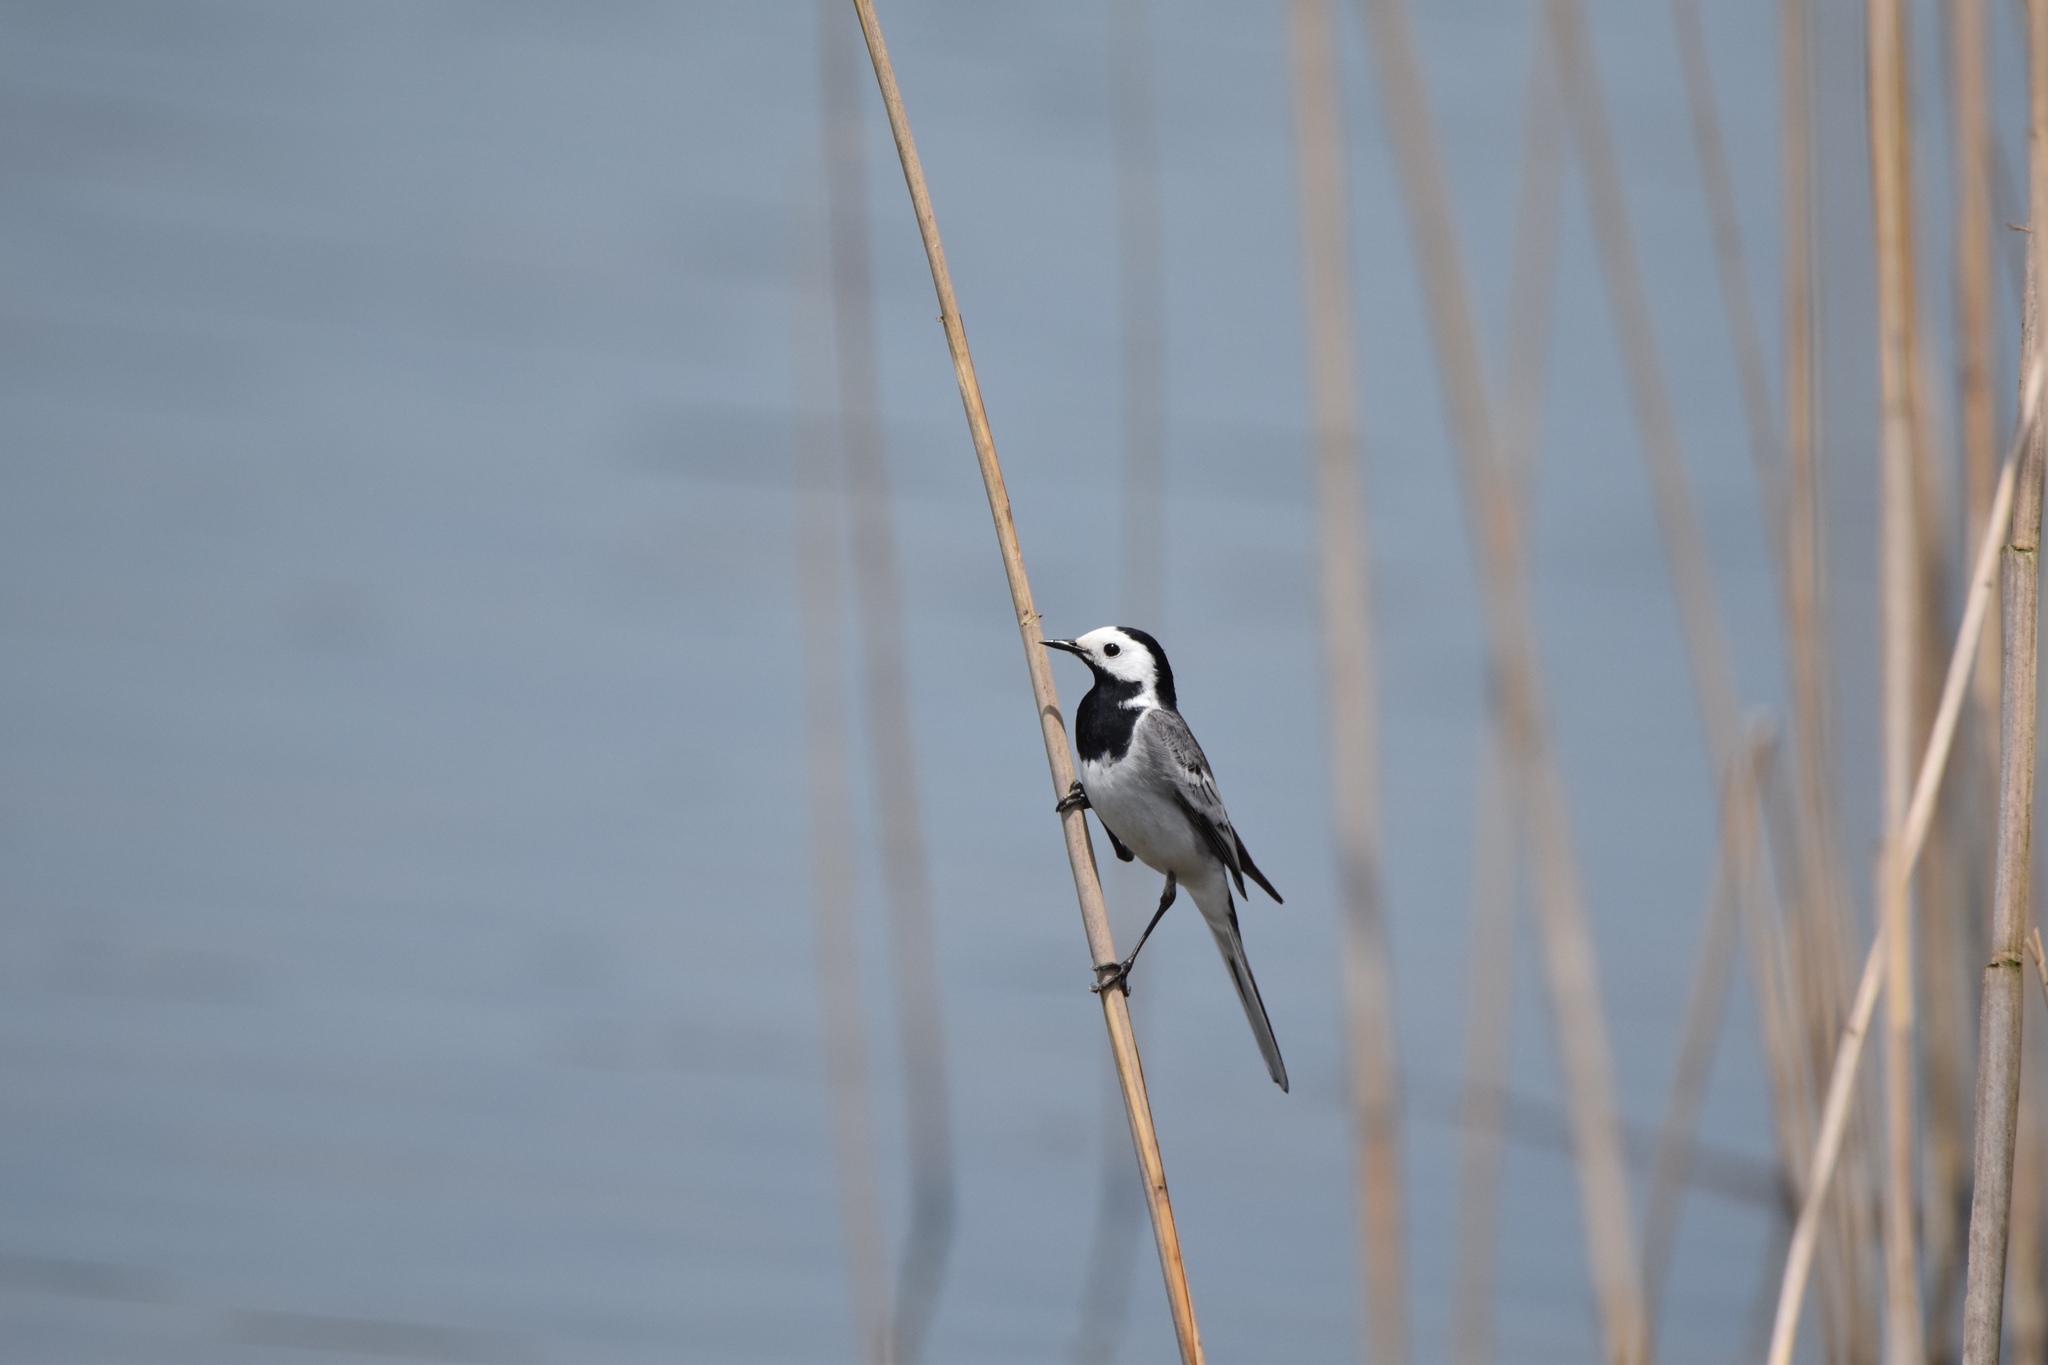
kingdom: Animalia
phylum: Chordata
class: Aves
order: Passeriformes
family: Motacillidae
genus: Motacilla
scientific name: Motacilla alba
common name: White wagtail
